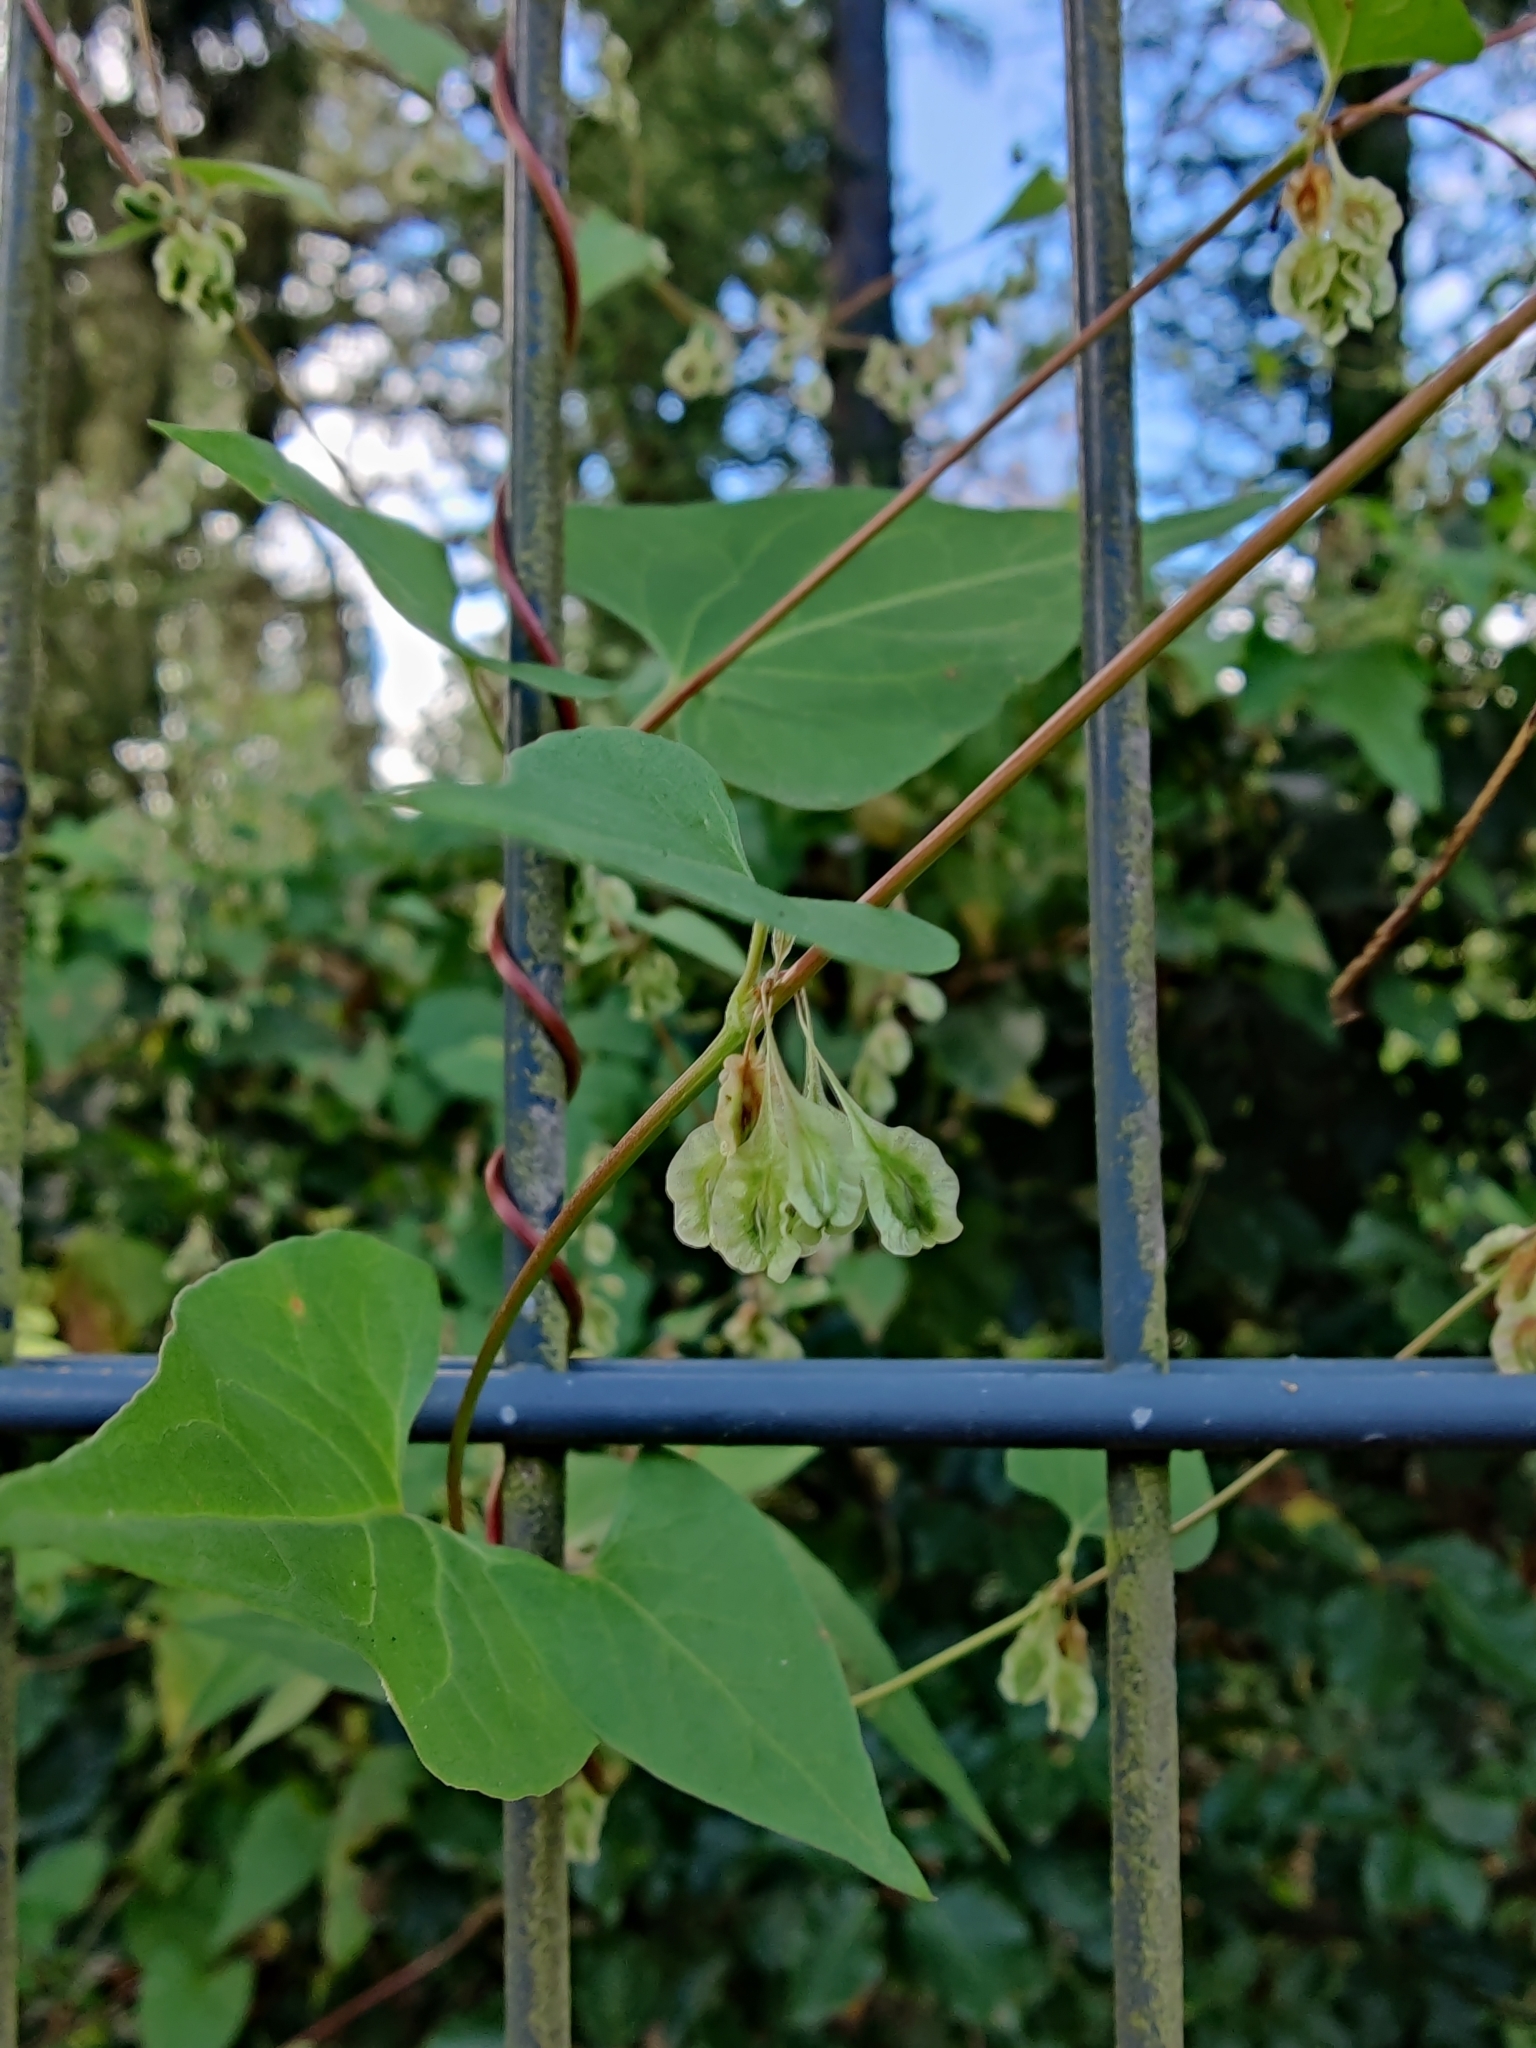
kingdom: Plantae
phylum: Tracheophyta
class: Magnoliopsida
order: Caryophyllales
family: Polygonaceae
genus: Fallopia
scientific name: Fallopia dumetorum
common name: Copse-bindweed
